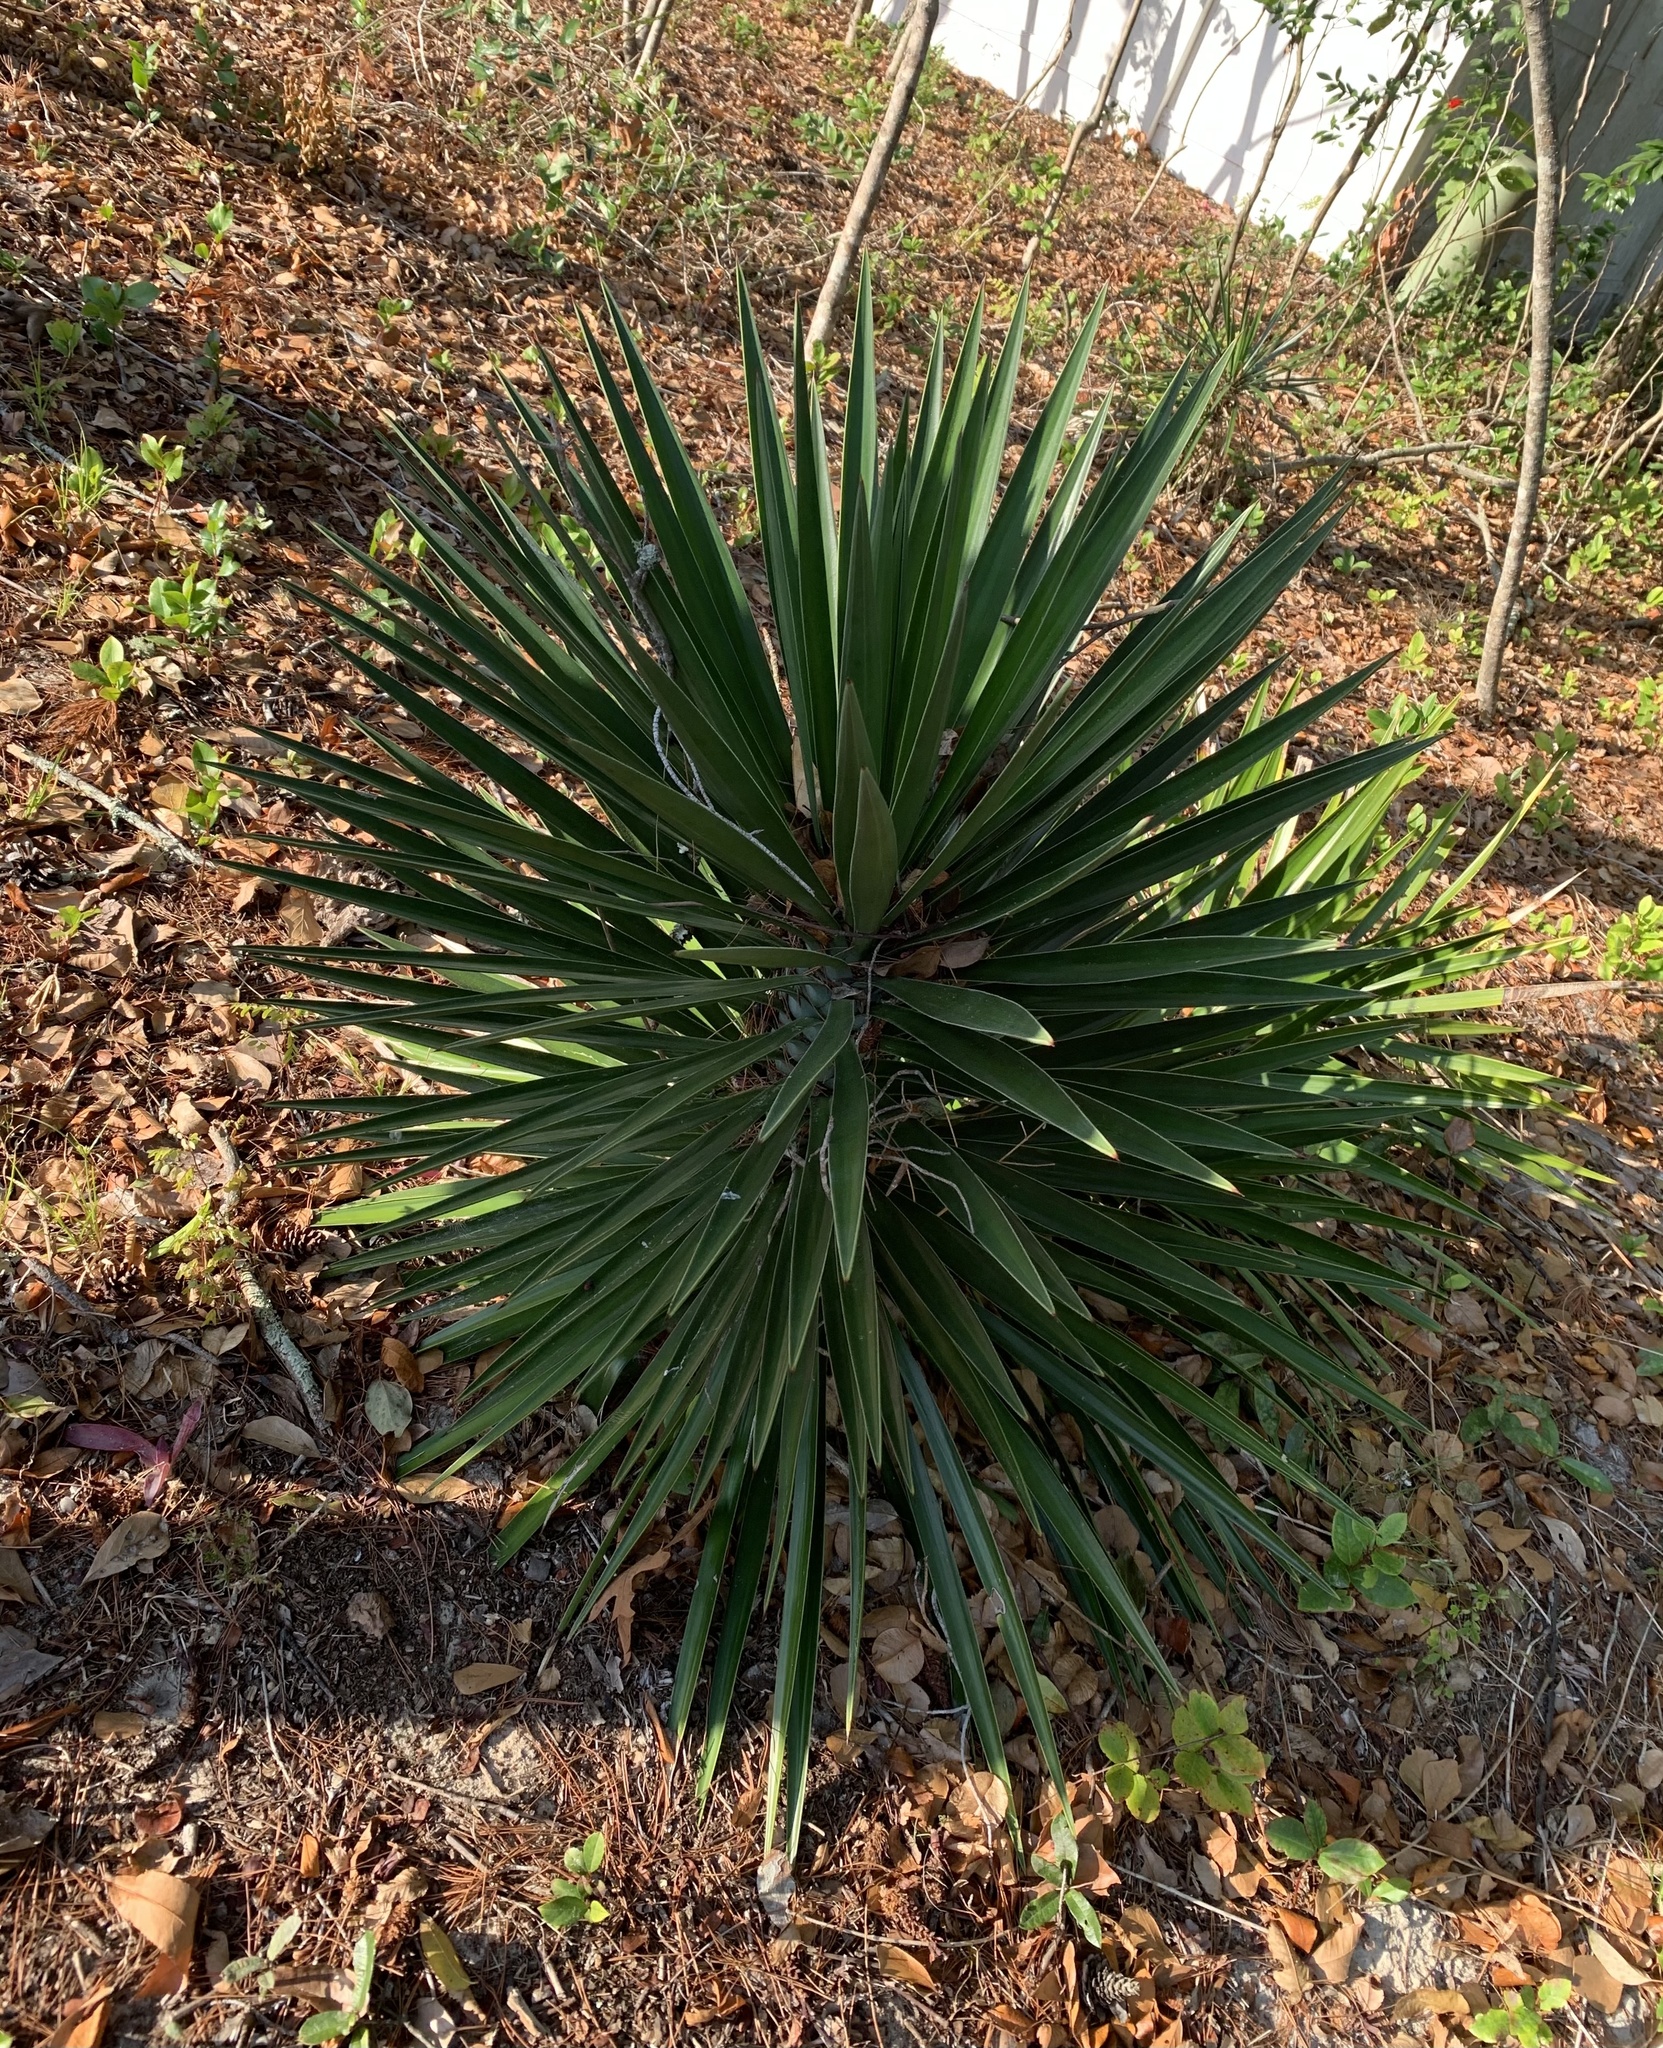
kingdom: Plantae
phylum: Tracheophyta
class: Liliopsida
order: Asparagales
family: Asparagaceae
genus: Yucca
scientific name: Yucca aloifolia
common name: Aloe yucca
